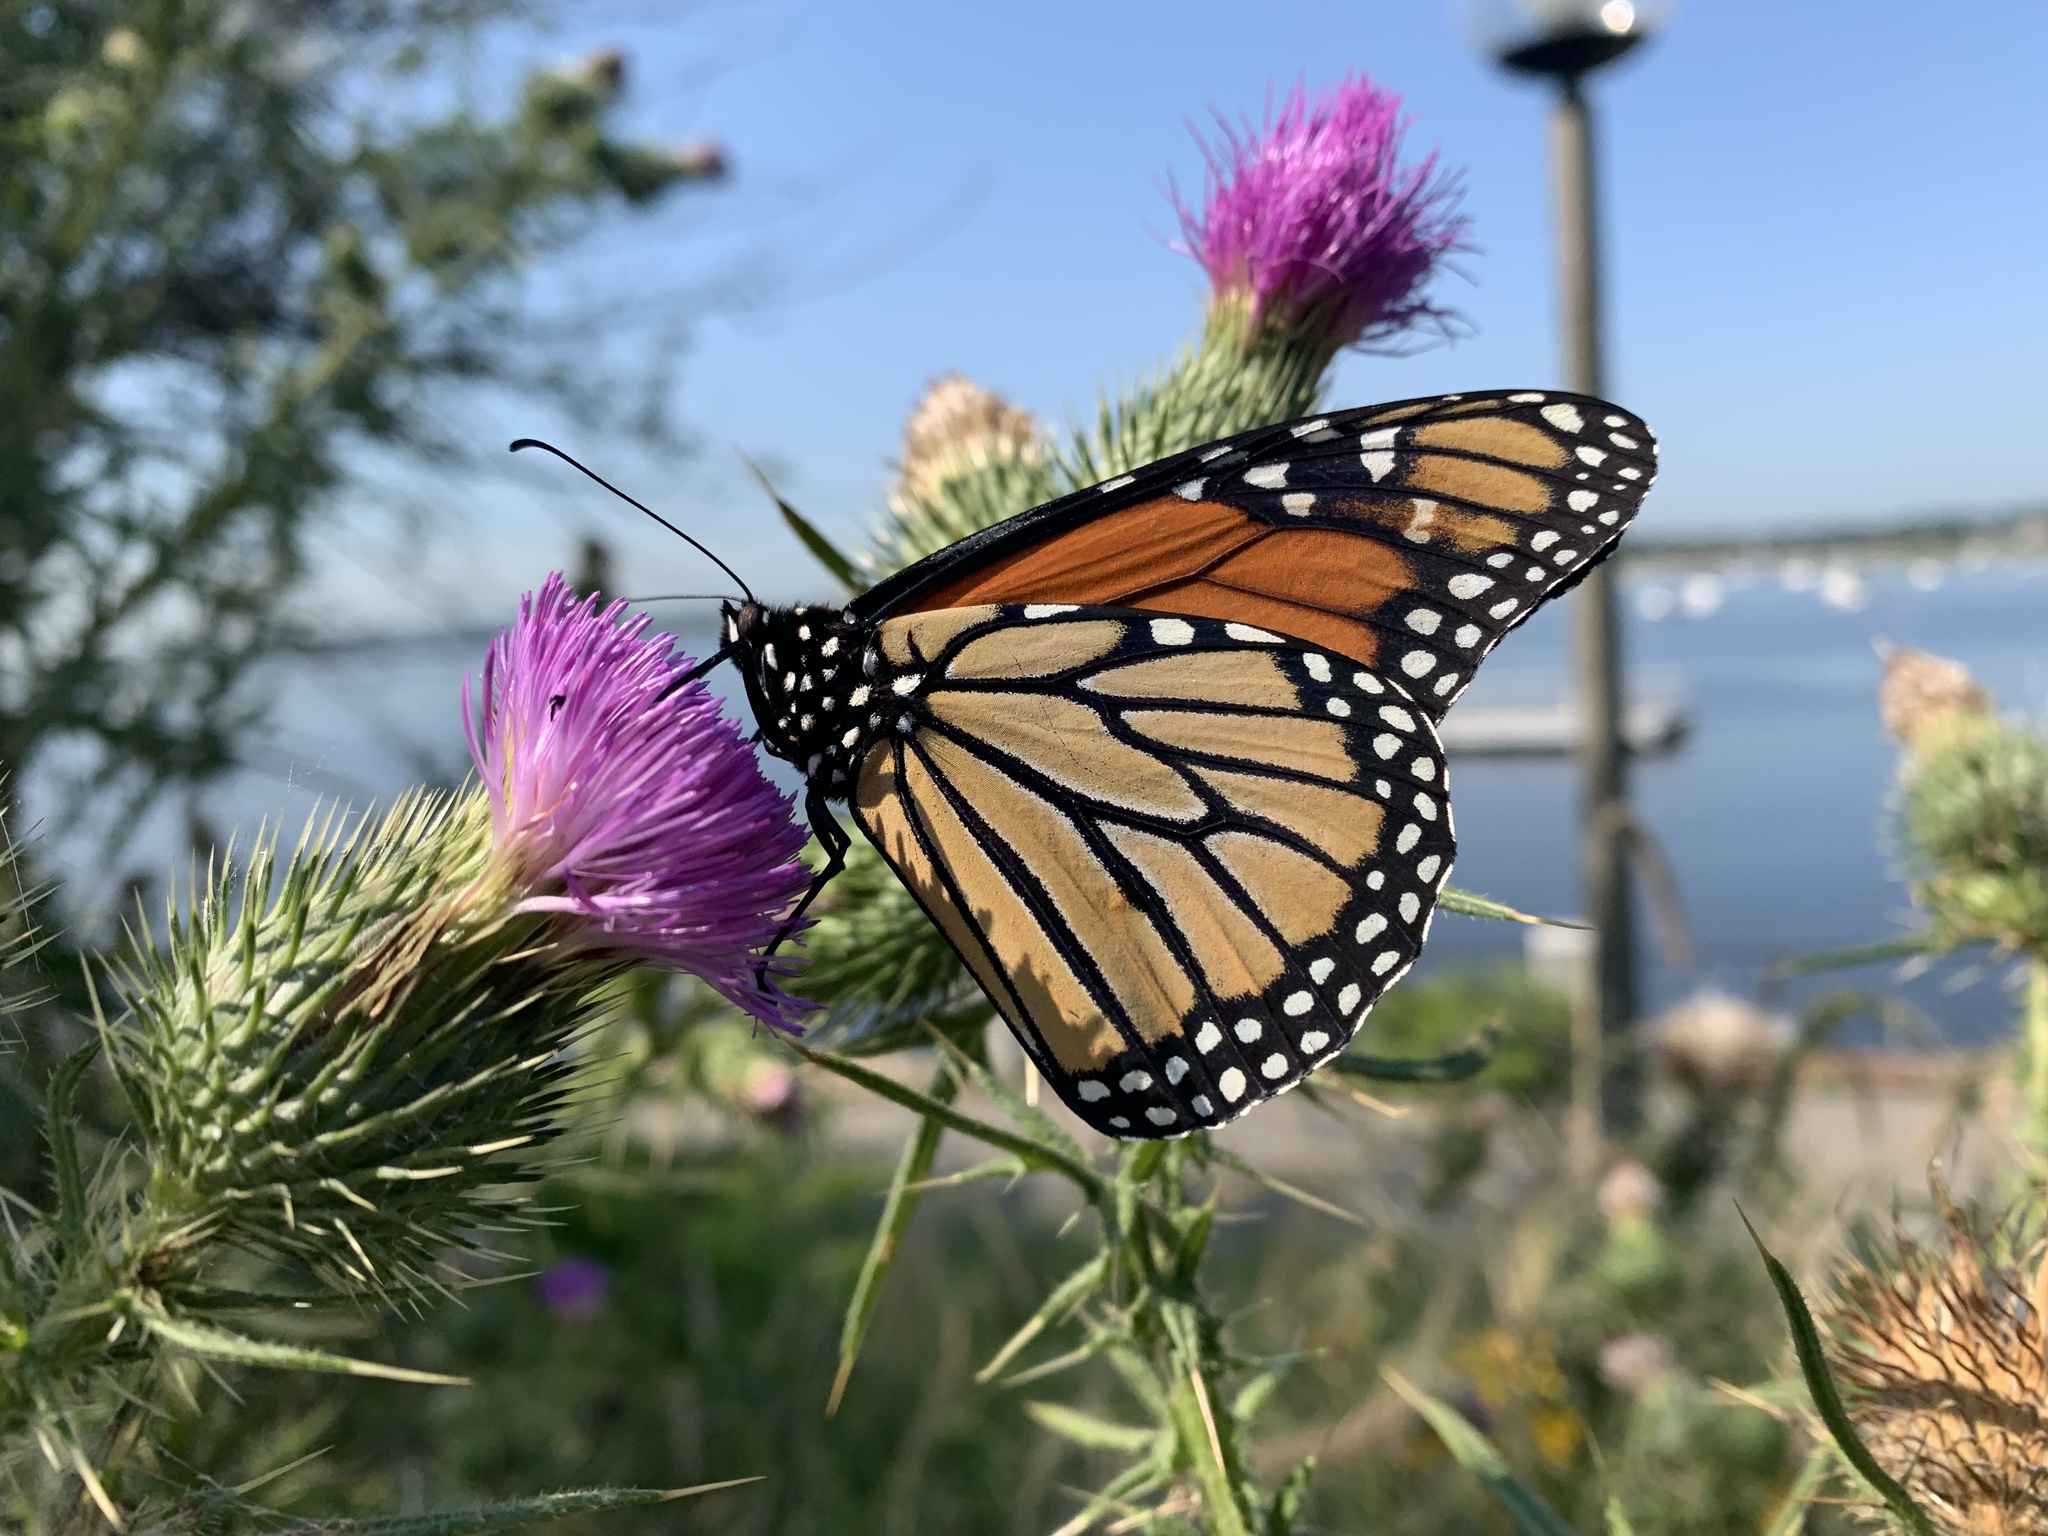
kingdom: Animalia
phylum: Arthropoda
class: Insecta
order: Lepidoptera
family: Nymphalidae
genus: Danaus
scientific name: Danaus plexippus
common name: Monarch
